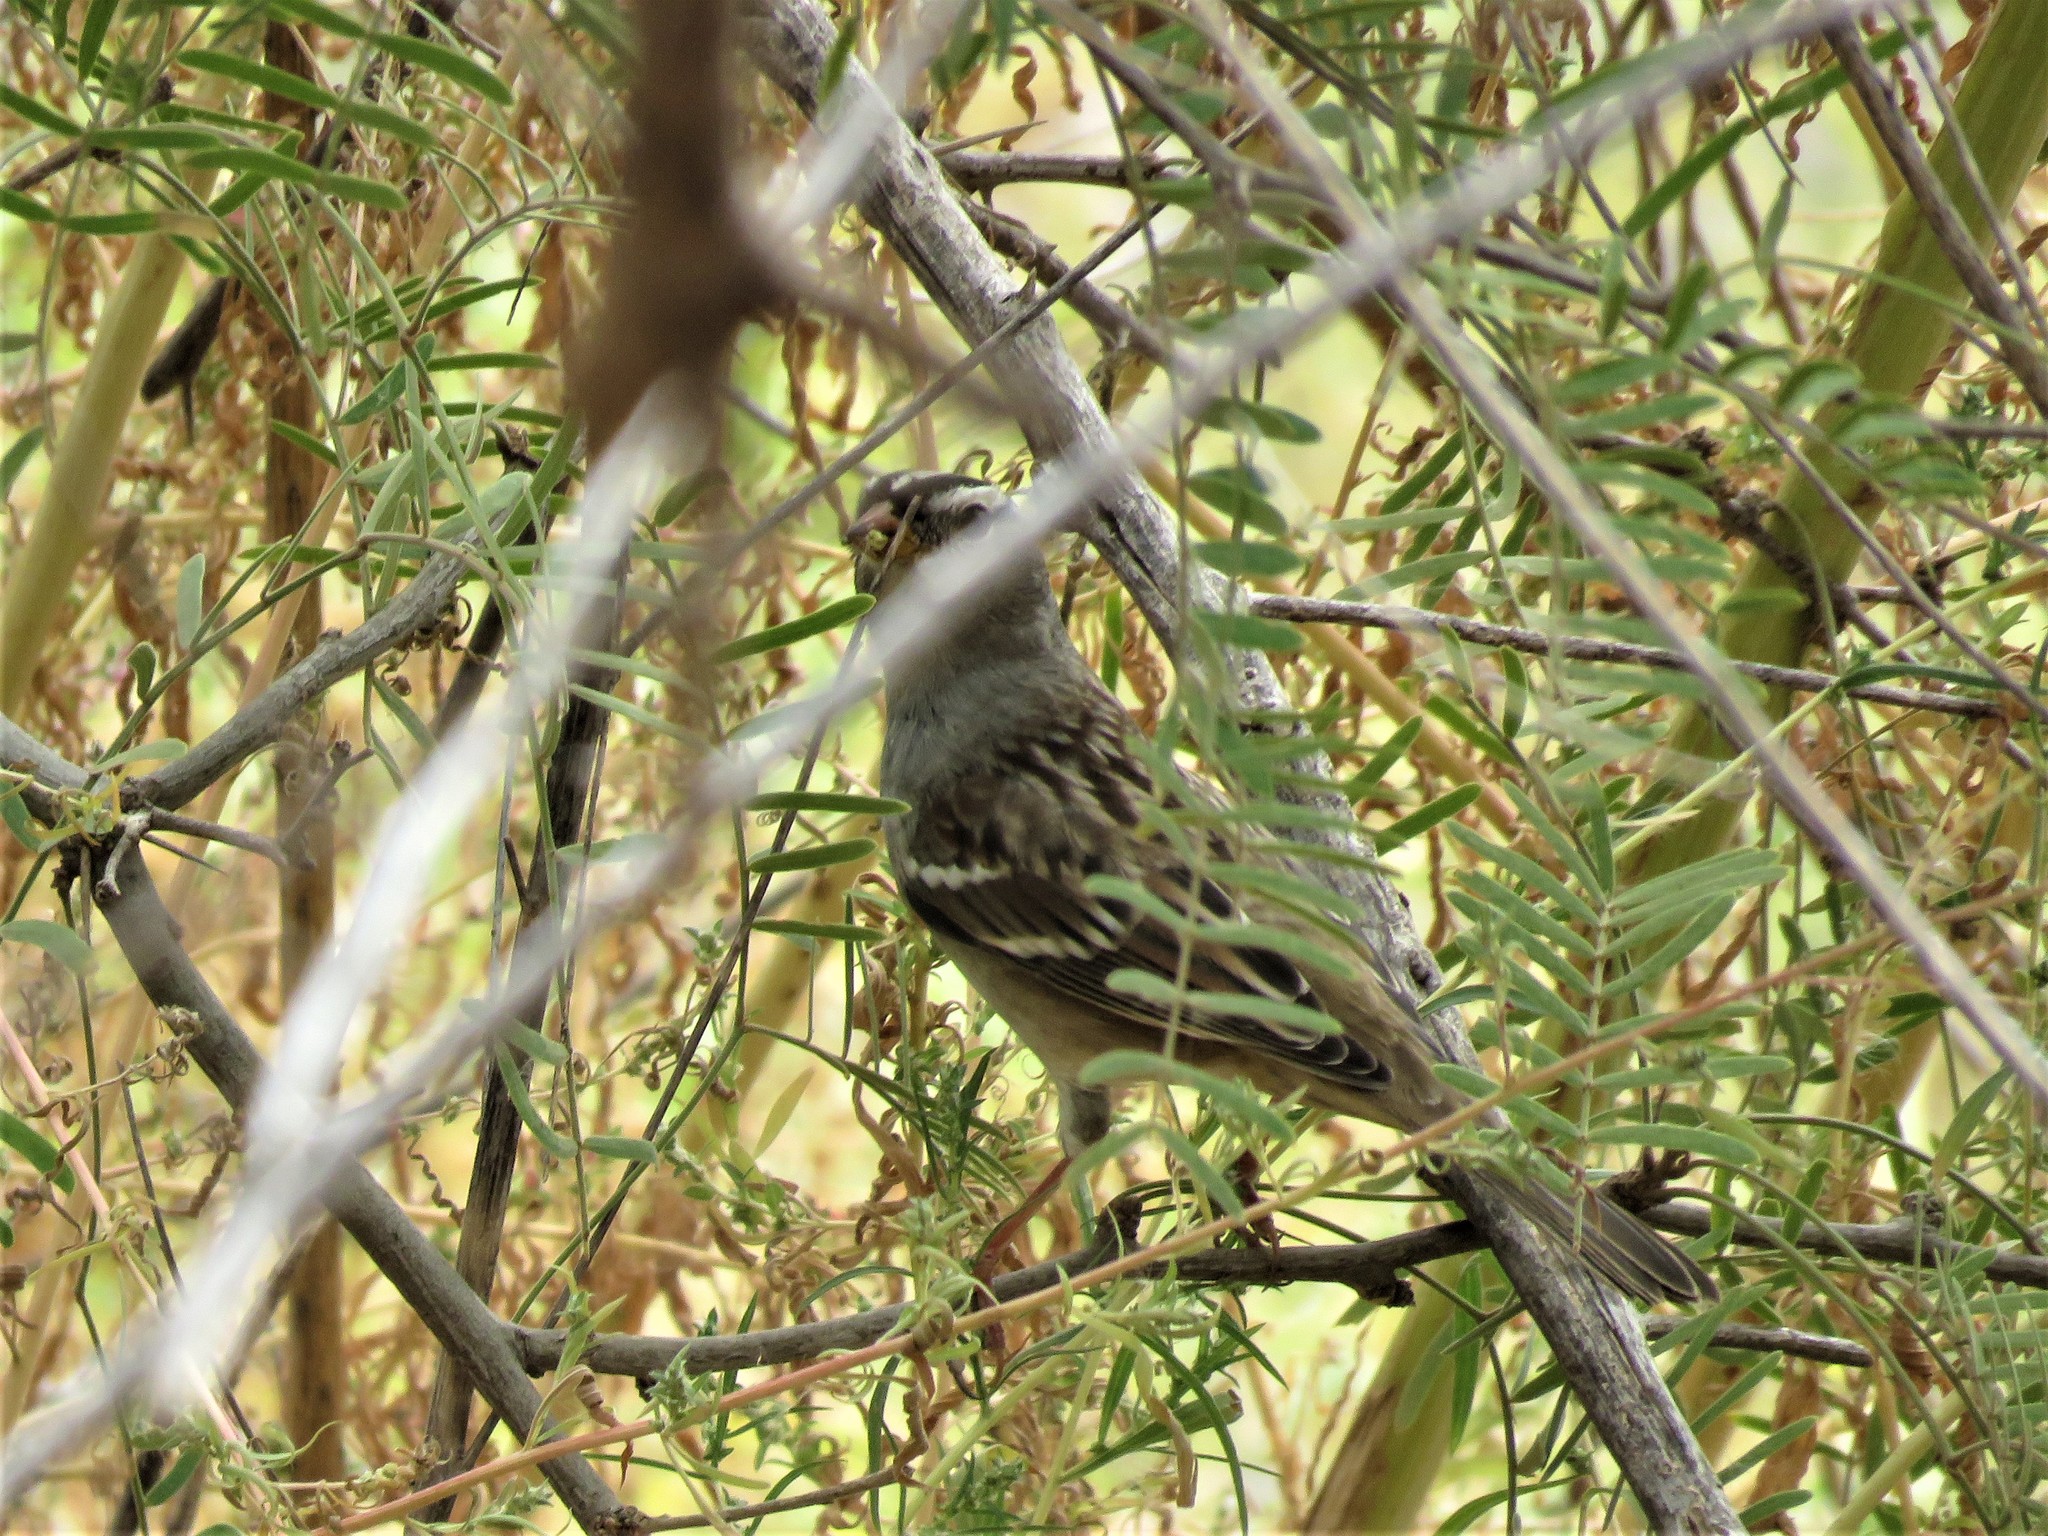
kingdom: Animalia
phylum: Chordata
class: Aves
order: Passeriformes
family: Passerellidae
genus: Zonotrichia
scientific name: Zonotrichia leucophrys
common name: White-crowned sparrow
